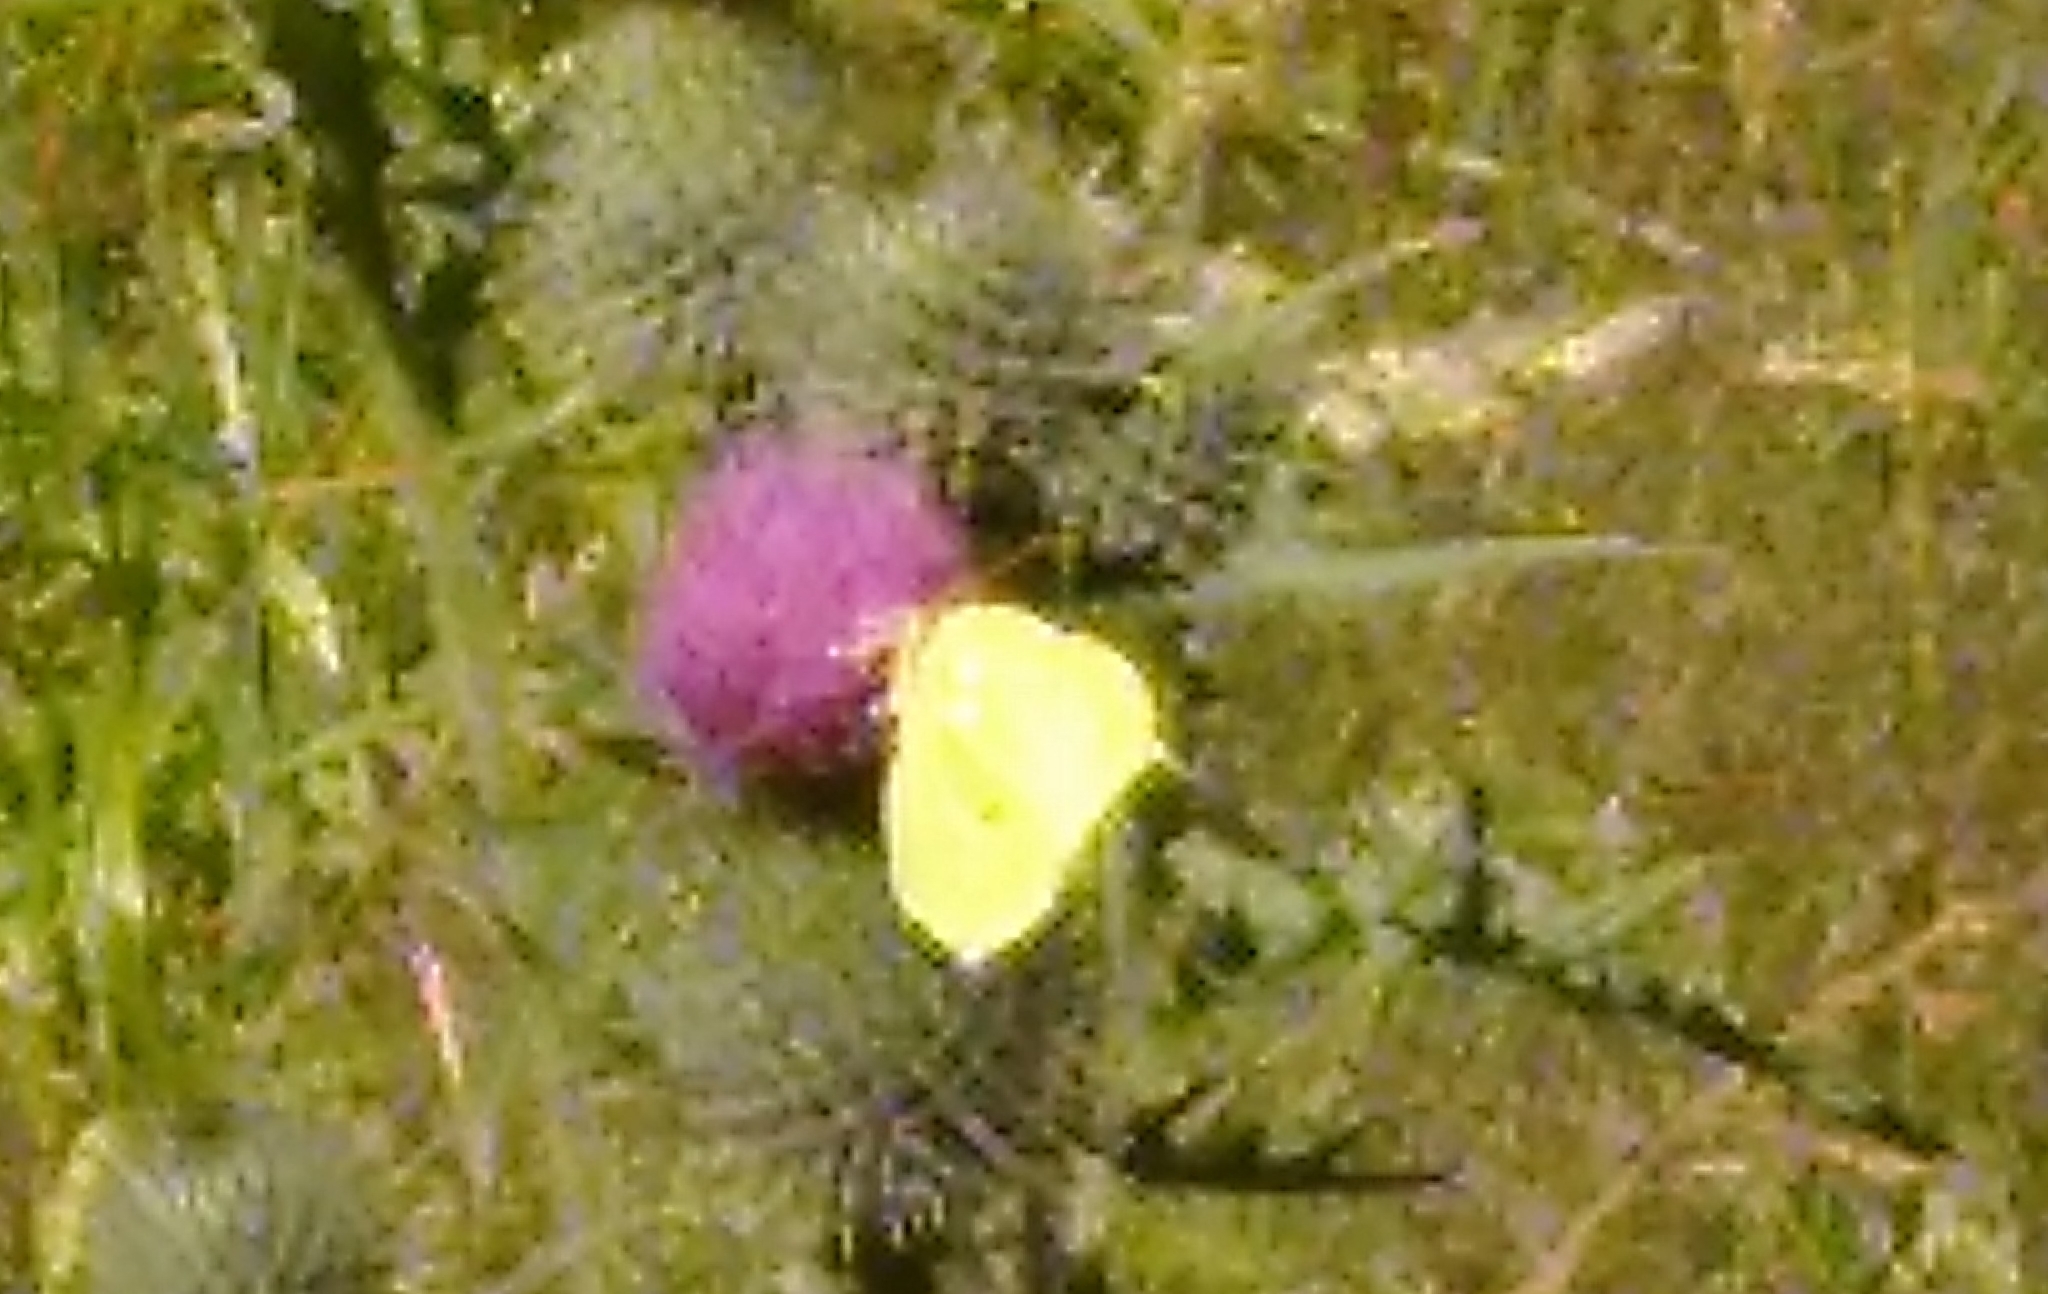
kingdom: Animalia
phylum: Arthropoda
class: Insecta
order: Lepidoptera
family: Pieridae
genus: Gonepteryx
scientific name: Gonepteryx rhamni
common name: Brimstone
